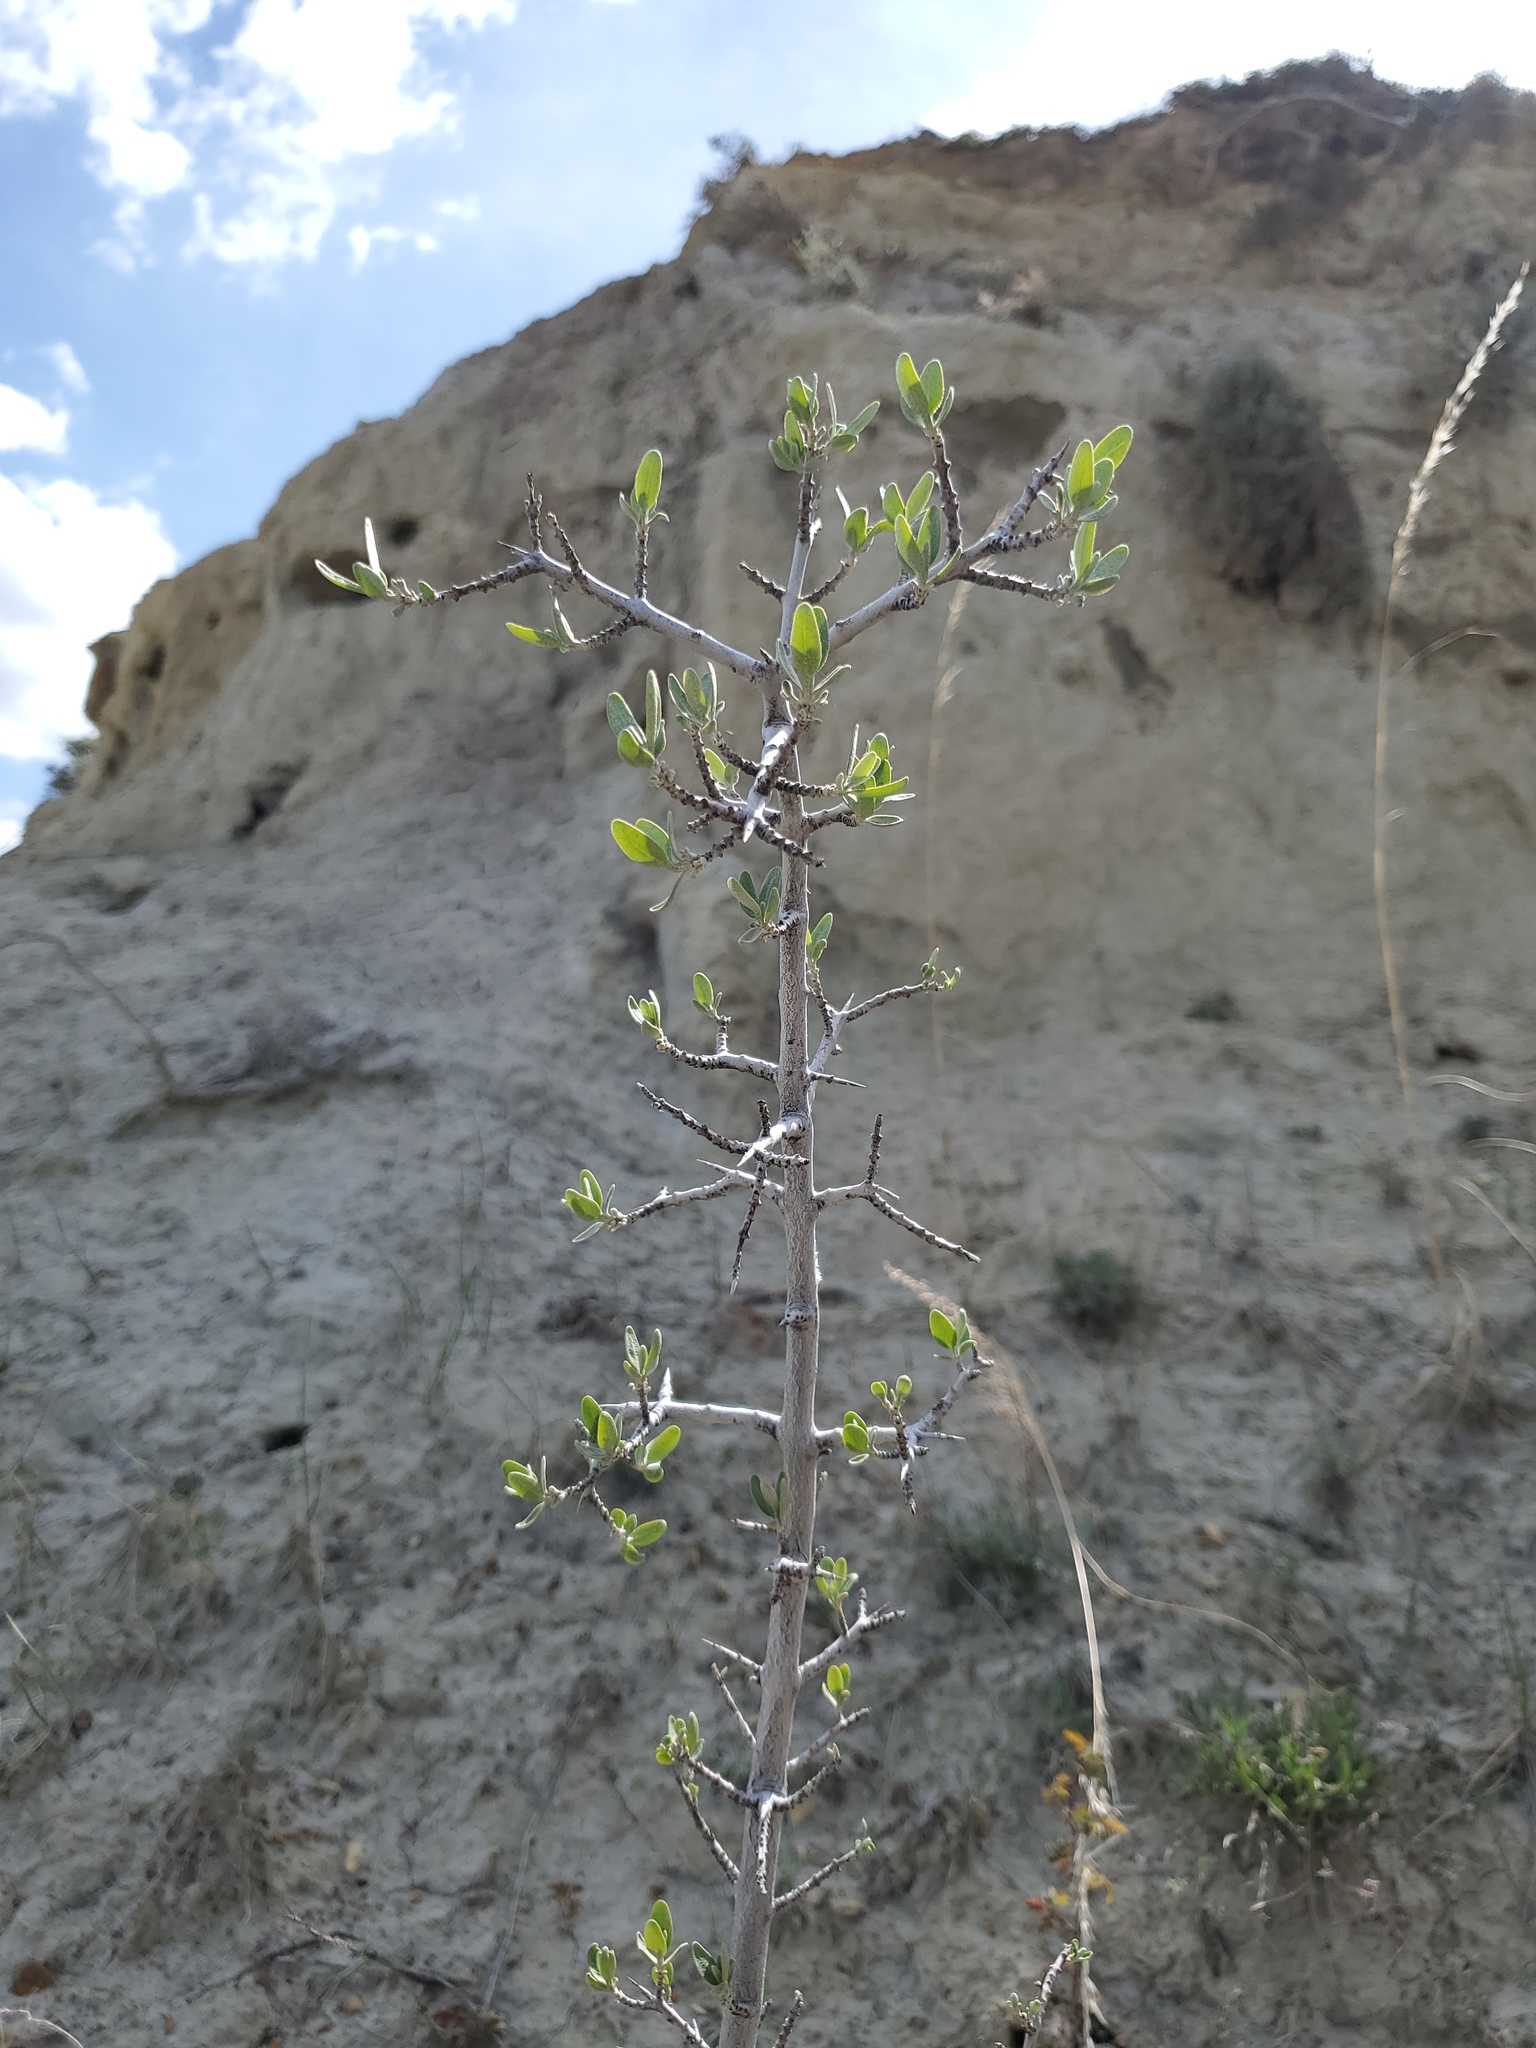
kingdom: Plantae
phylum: Tracheophyta
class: Magnoliopsida
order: Rosales
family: Elaeagnaceae
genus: Shepherdia
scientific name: Shepherdia argentea
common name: Silver buffaloberry
